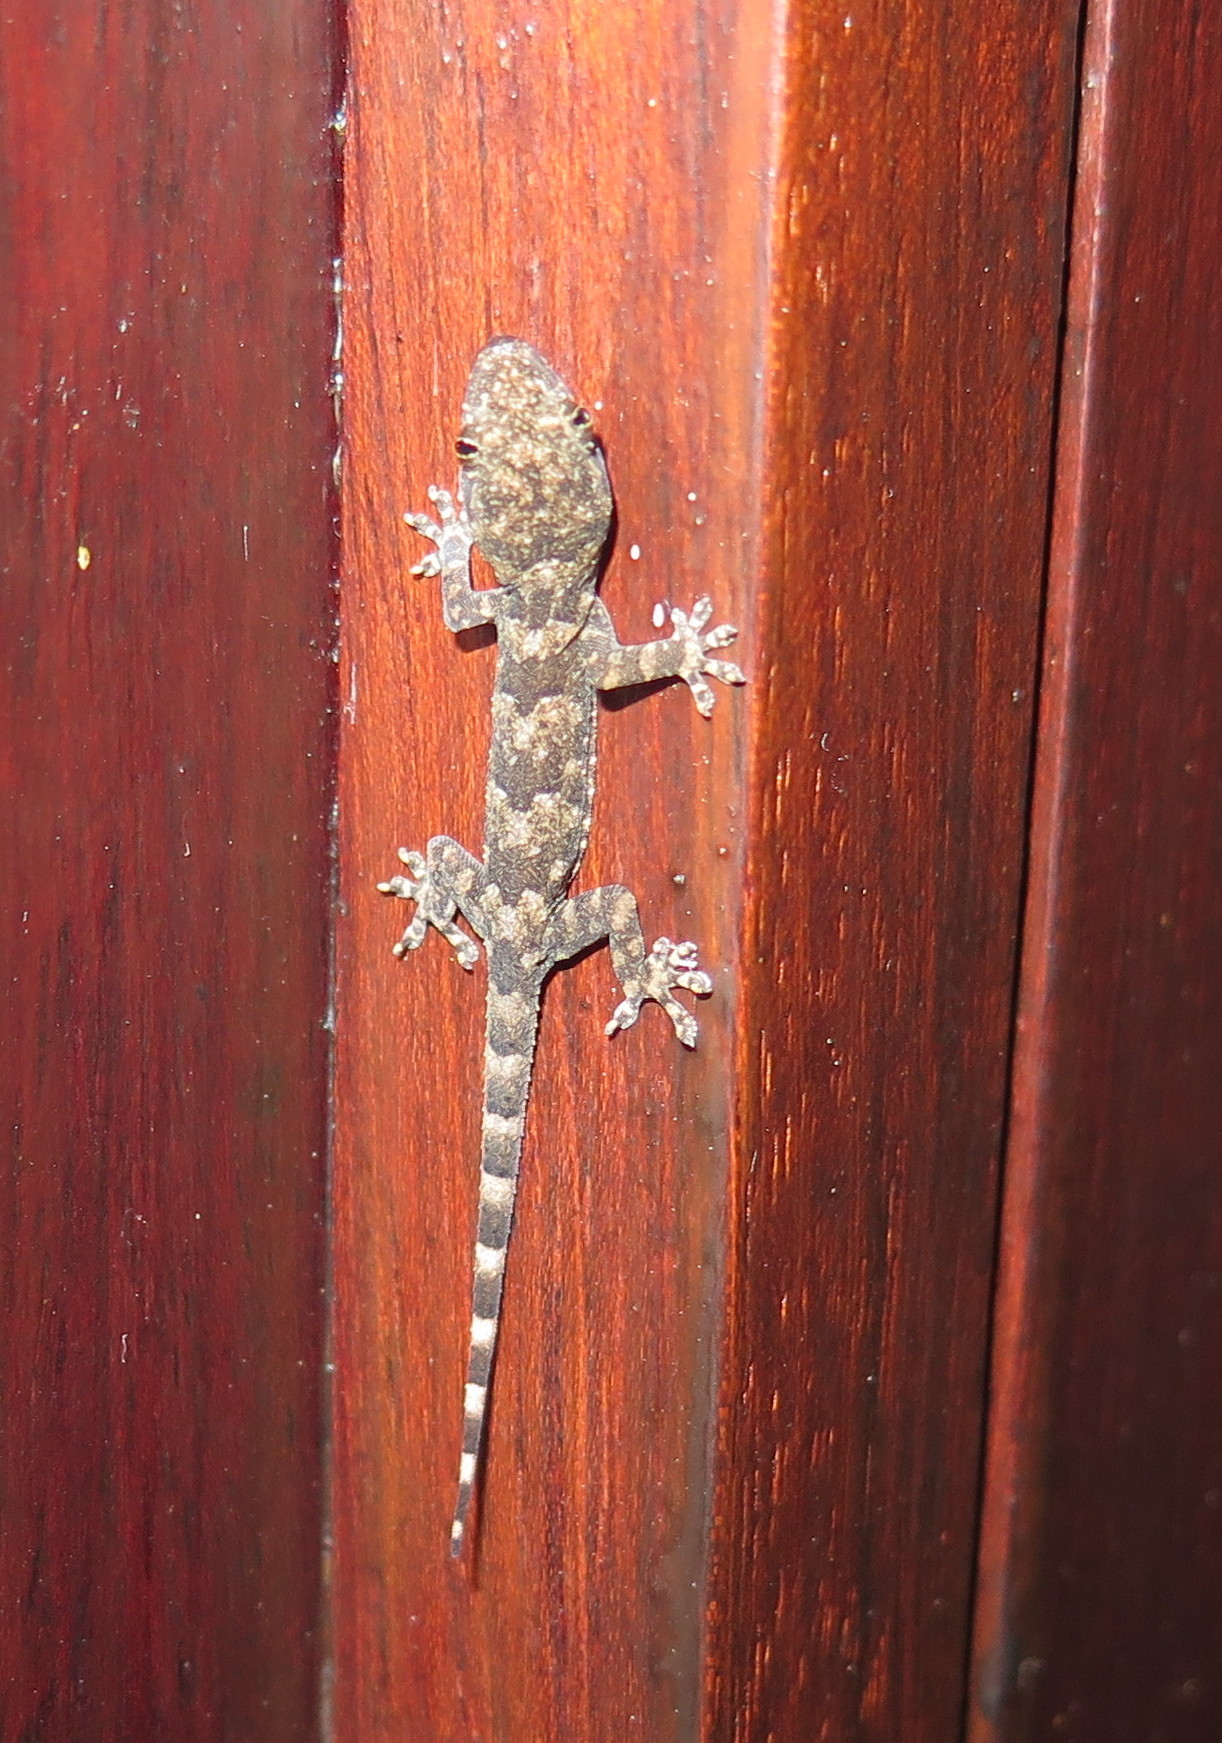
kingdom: Animalia
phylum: Chordata
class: Squamata
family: Gekkonidae
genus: Hemidactylus
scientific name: Hemidactylus mabouia
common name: House gecko
